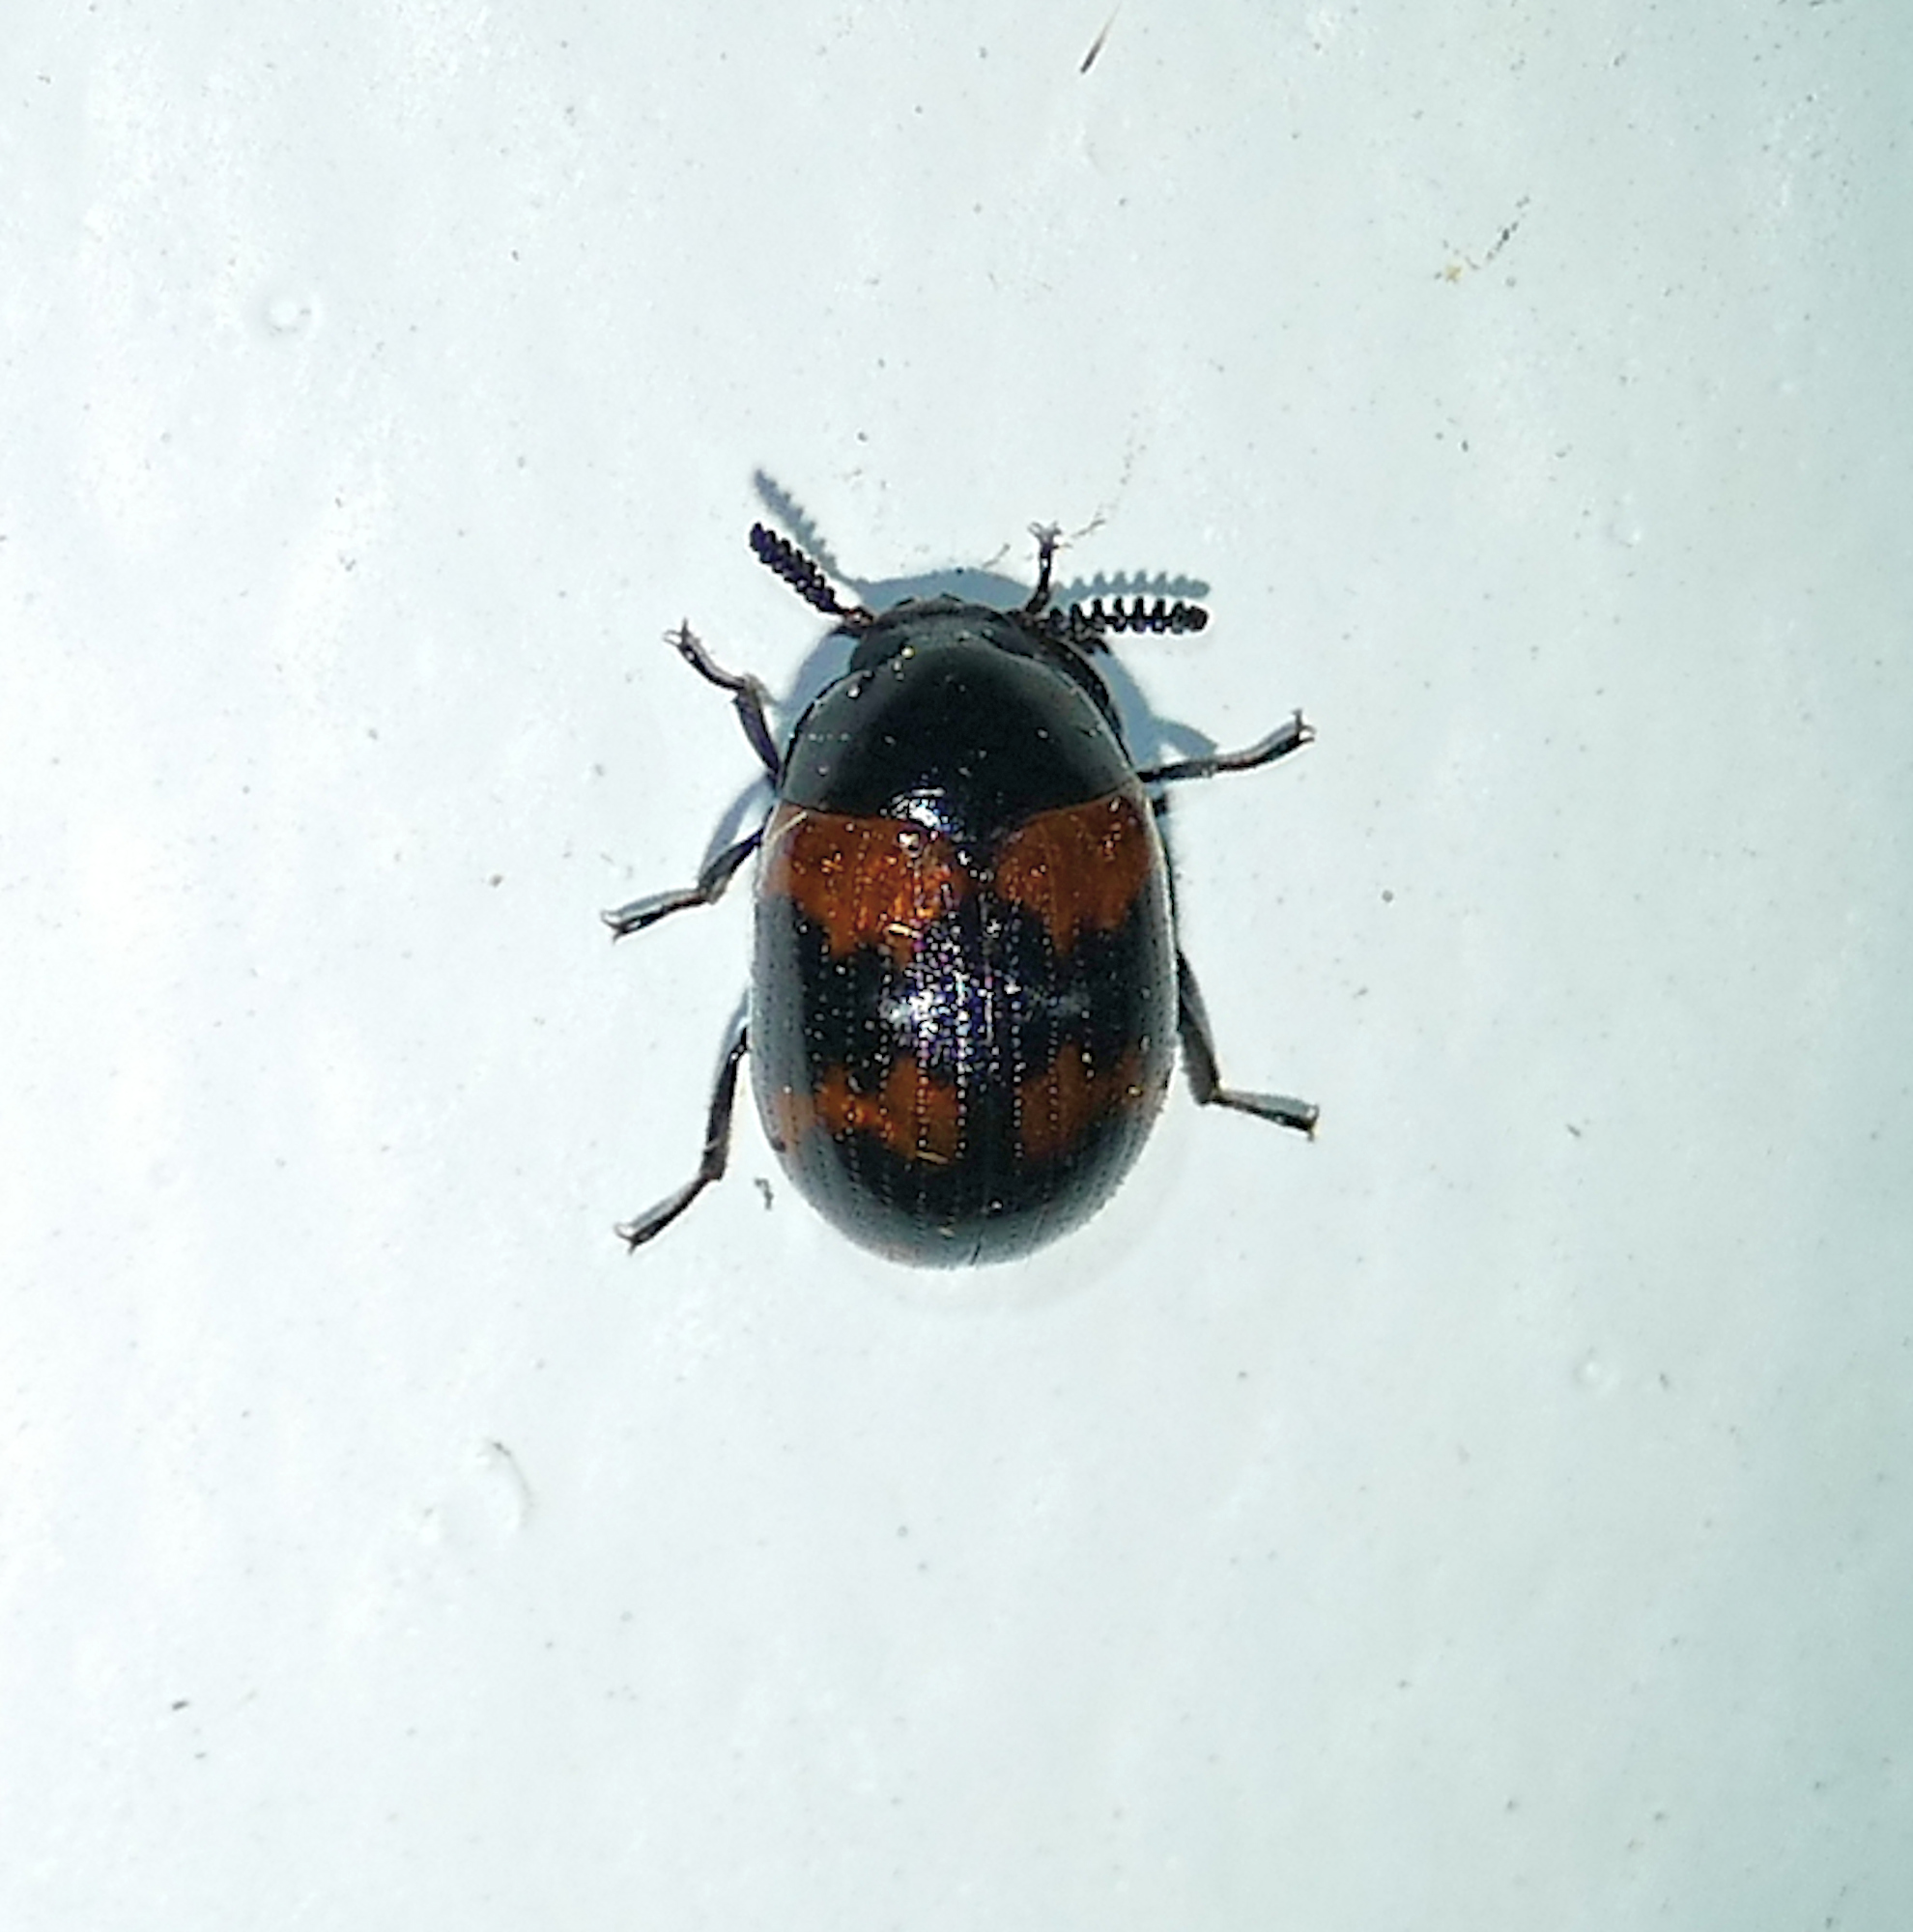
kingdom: Animalia
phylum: Arthropoda
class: Insecta
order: Coleoptera
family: Tenebrionidae
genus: Diaperis
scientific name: Diaperis rufipes
